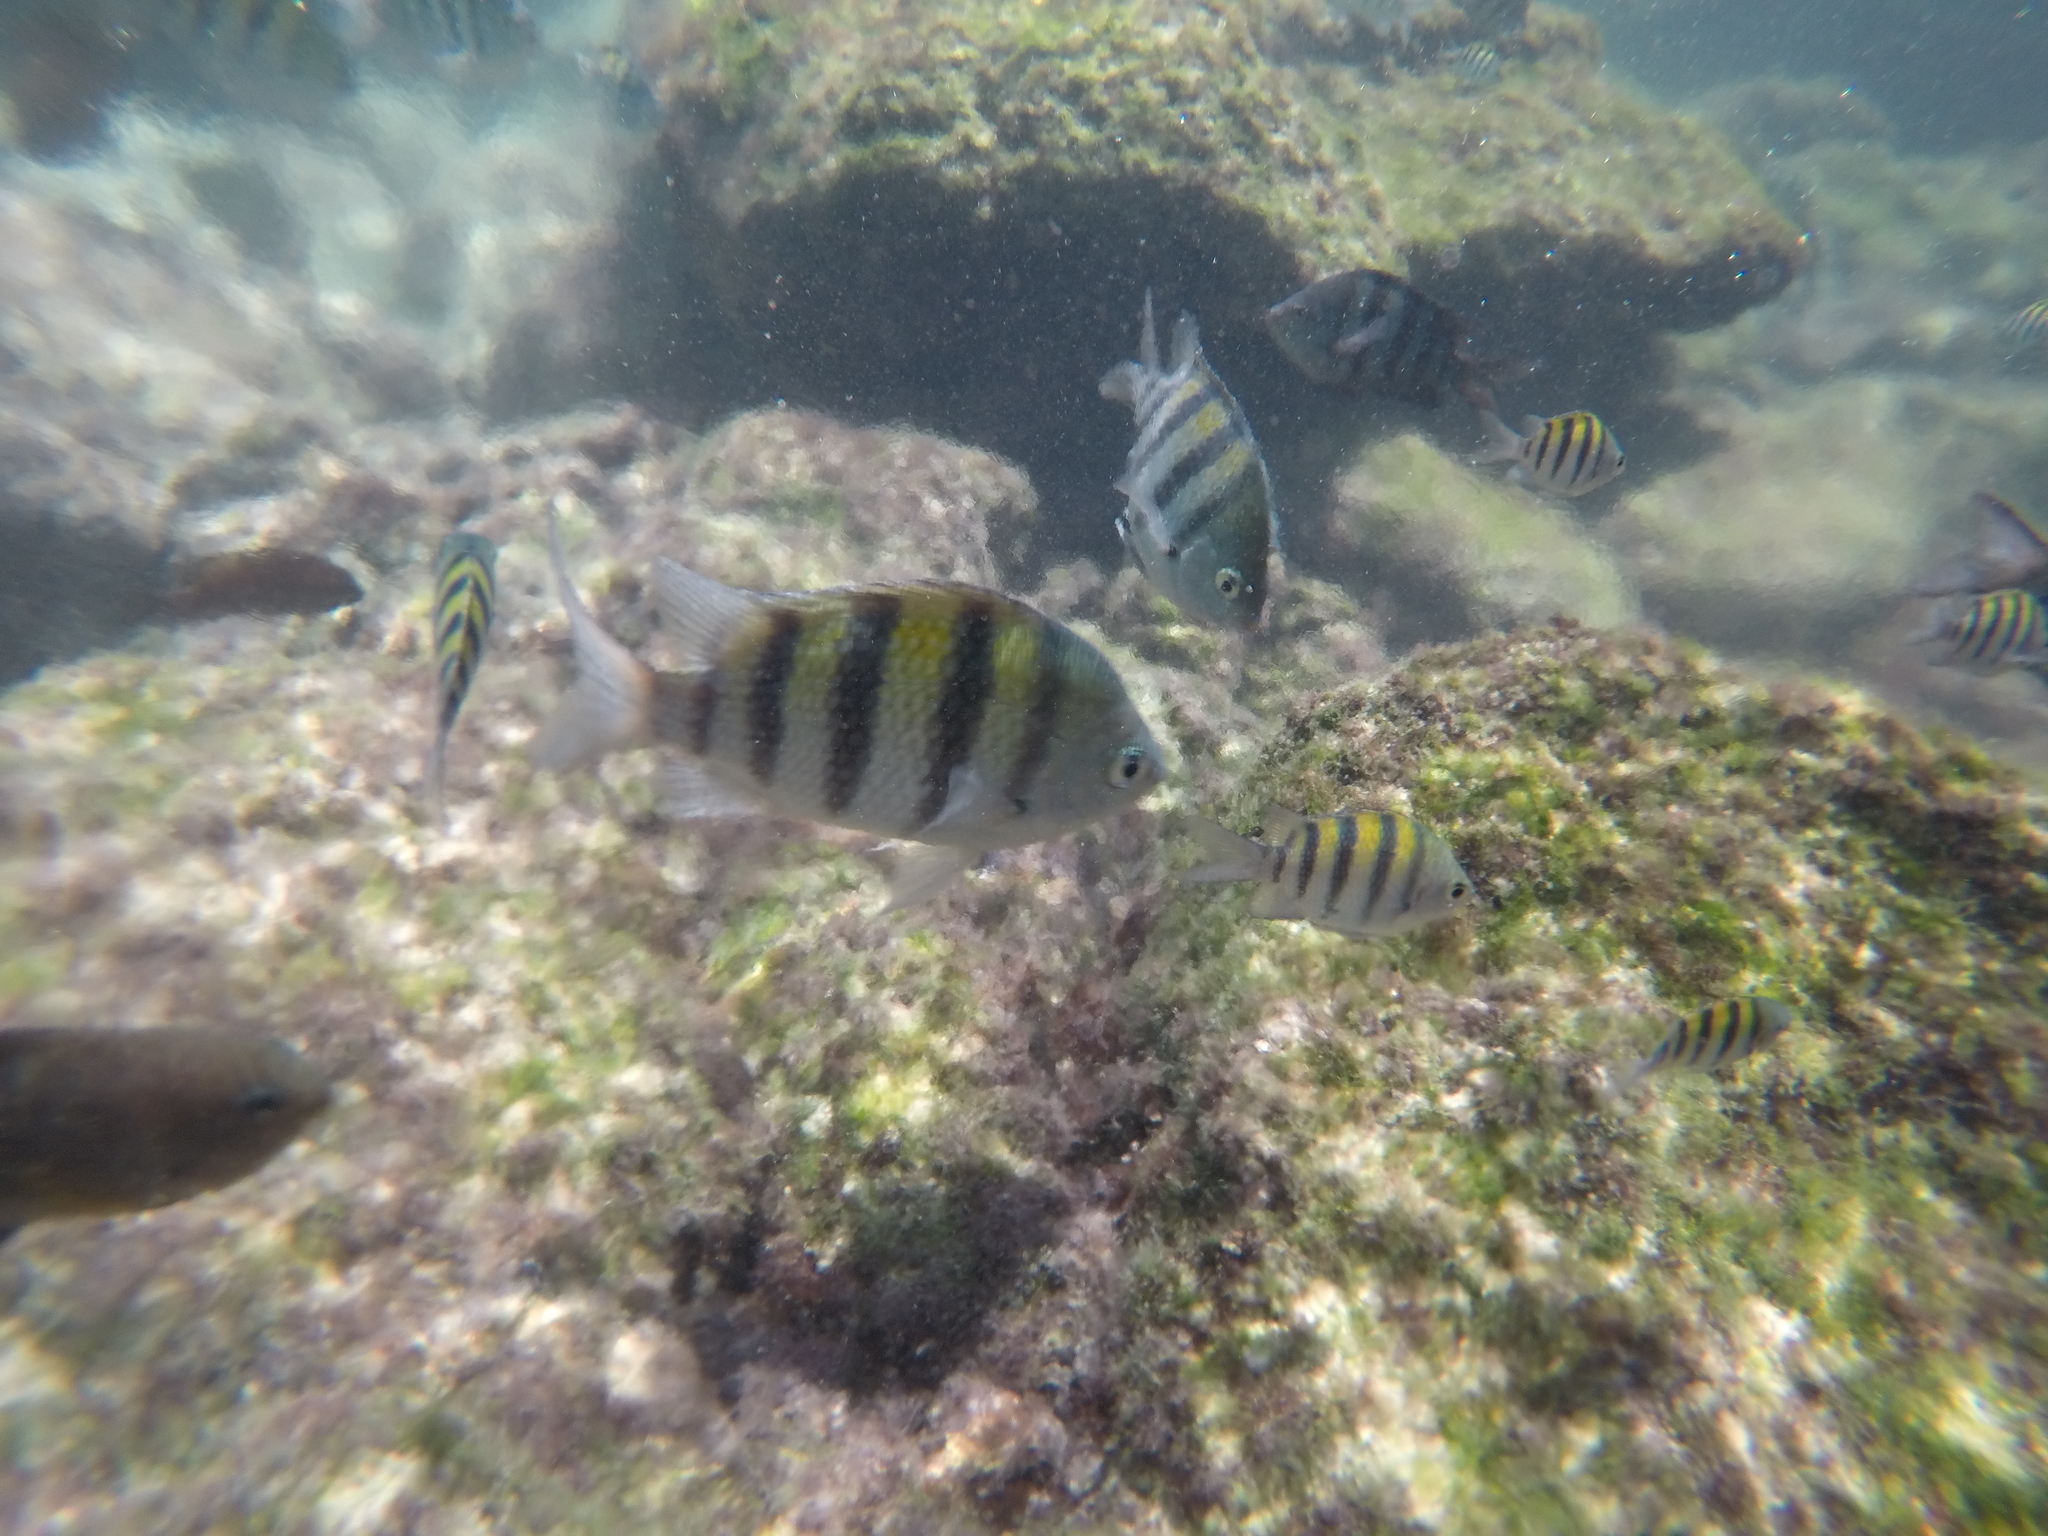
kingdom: Animalia
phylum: Chordata
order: Perciformes
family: Pomacentridae
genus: Abudefduf
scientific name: Abudefduf saxatilis
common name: Sergeant major
